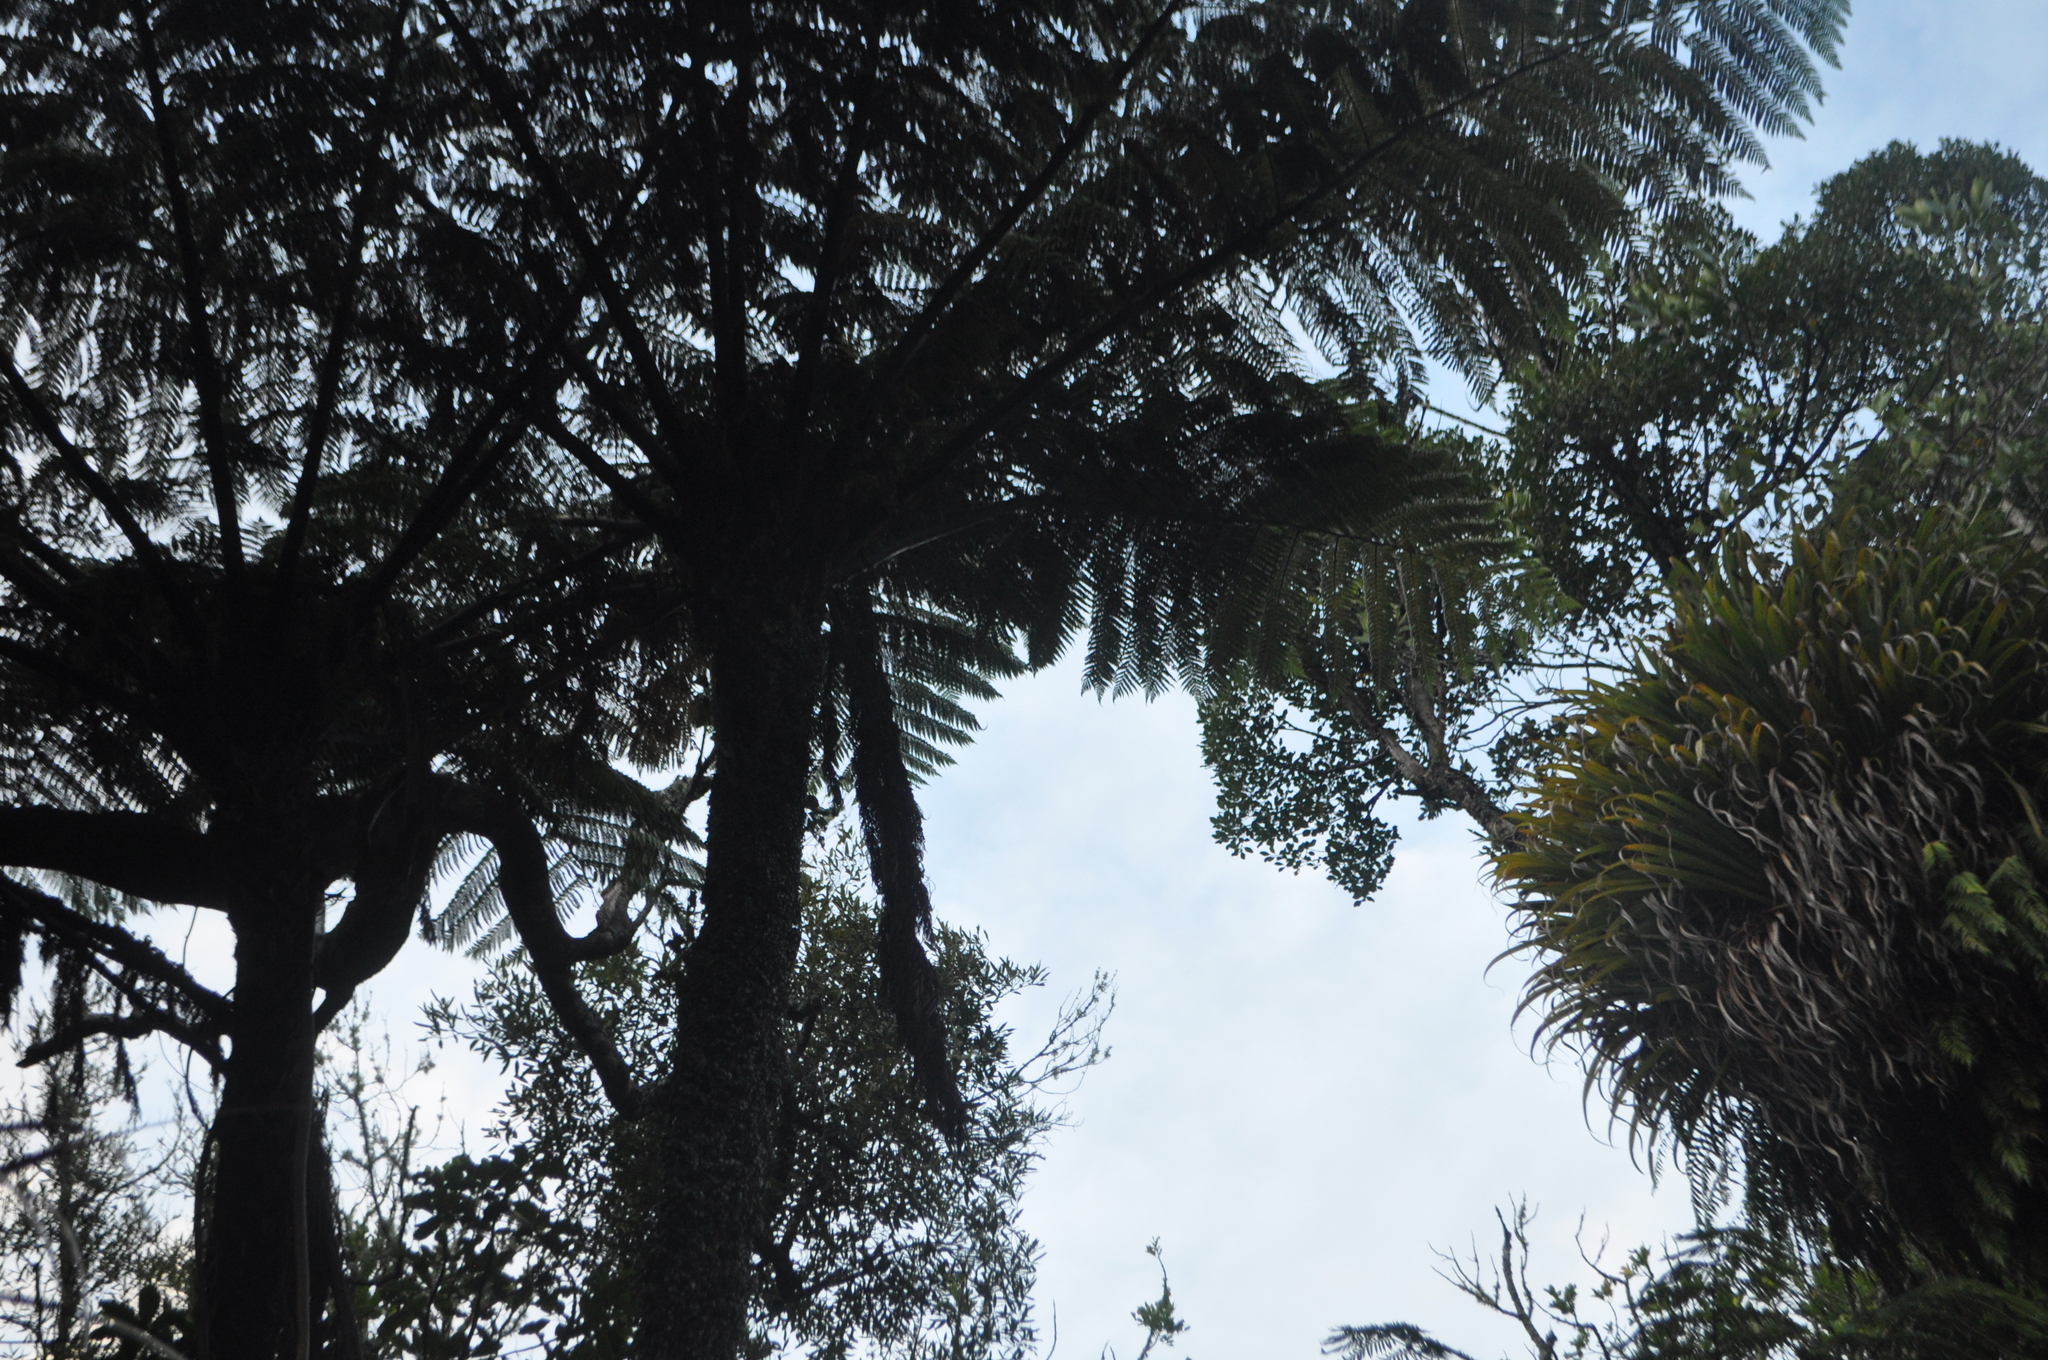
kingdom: Plantae
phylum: Tracheophyta
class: Polypodiopsida
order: Cyatheales
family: Cyatheaceae
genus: Sphaeropteris
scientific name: Sphaeropteris medullaris
